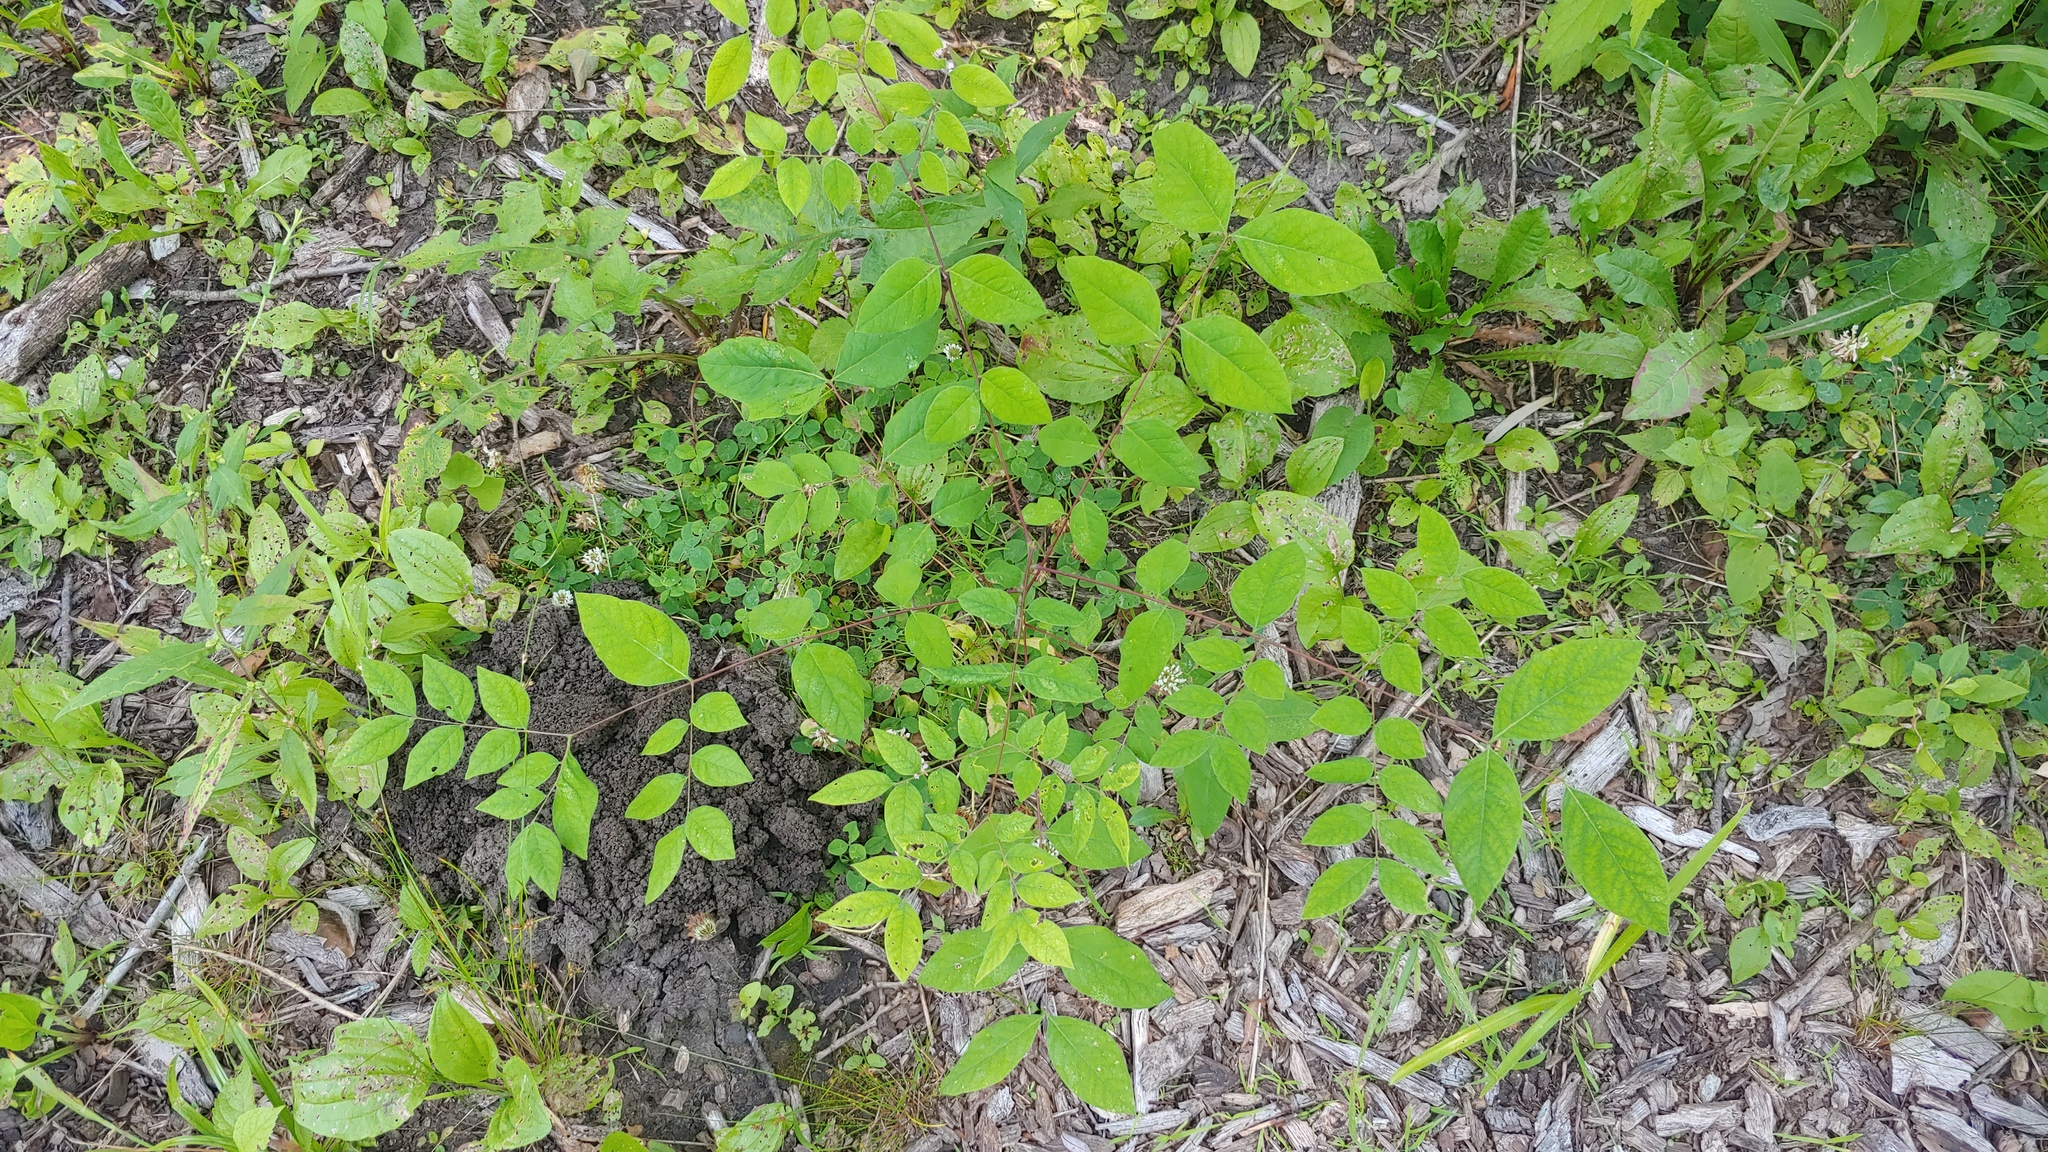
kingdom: Plantae
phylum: Tracheophyta
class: Magnoliopsida
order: Fabales
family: Fabaceae
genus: Gymnocladus
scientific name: Gymnocladus dioicus
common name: Kentucky coffee-tree
